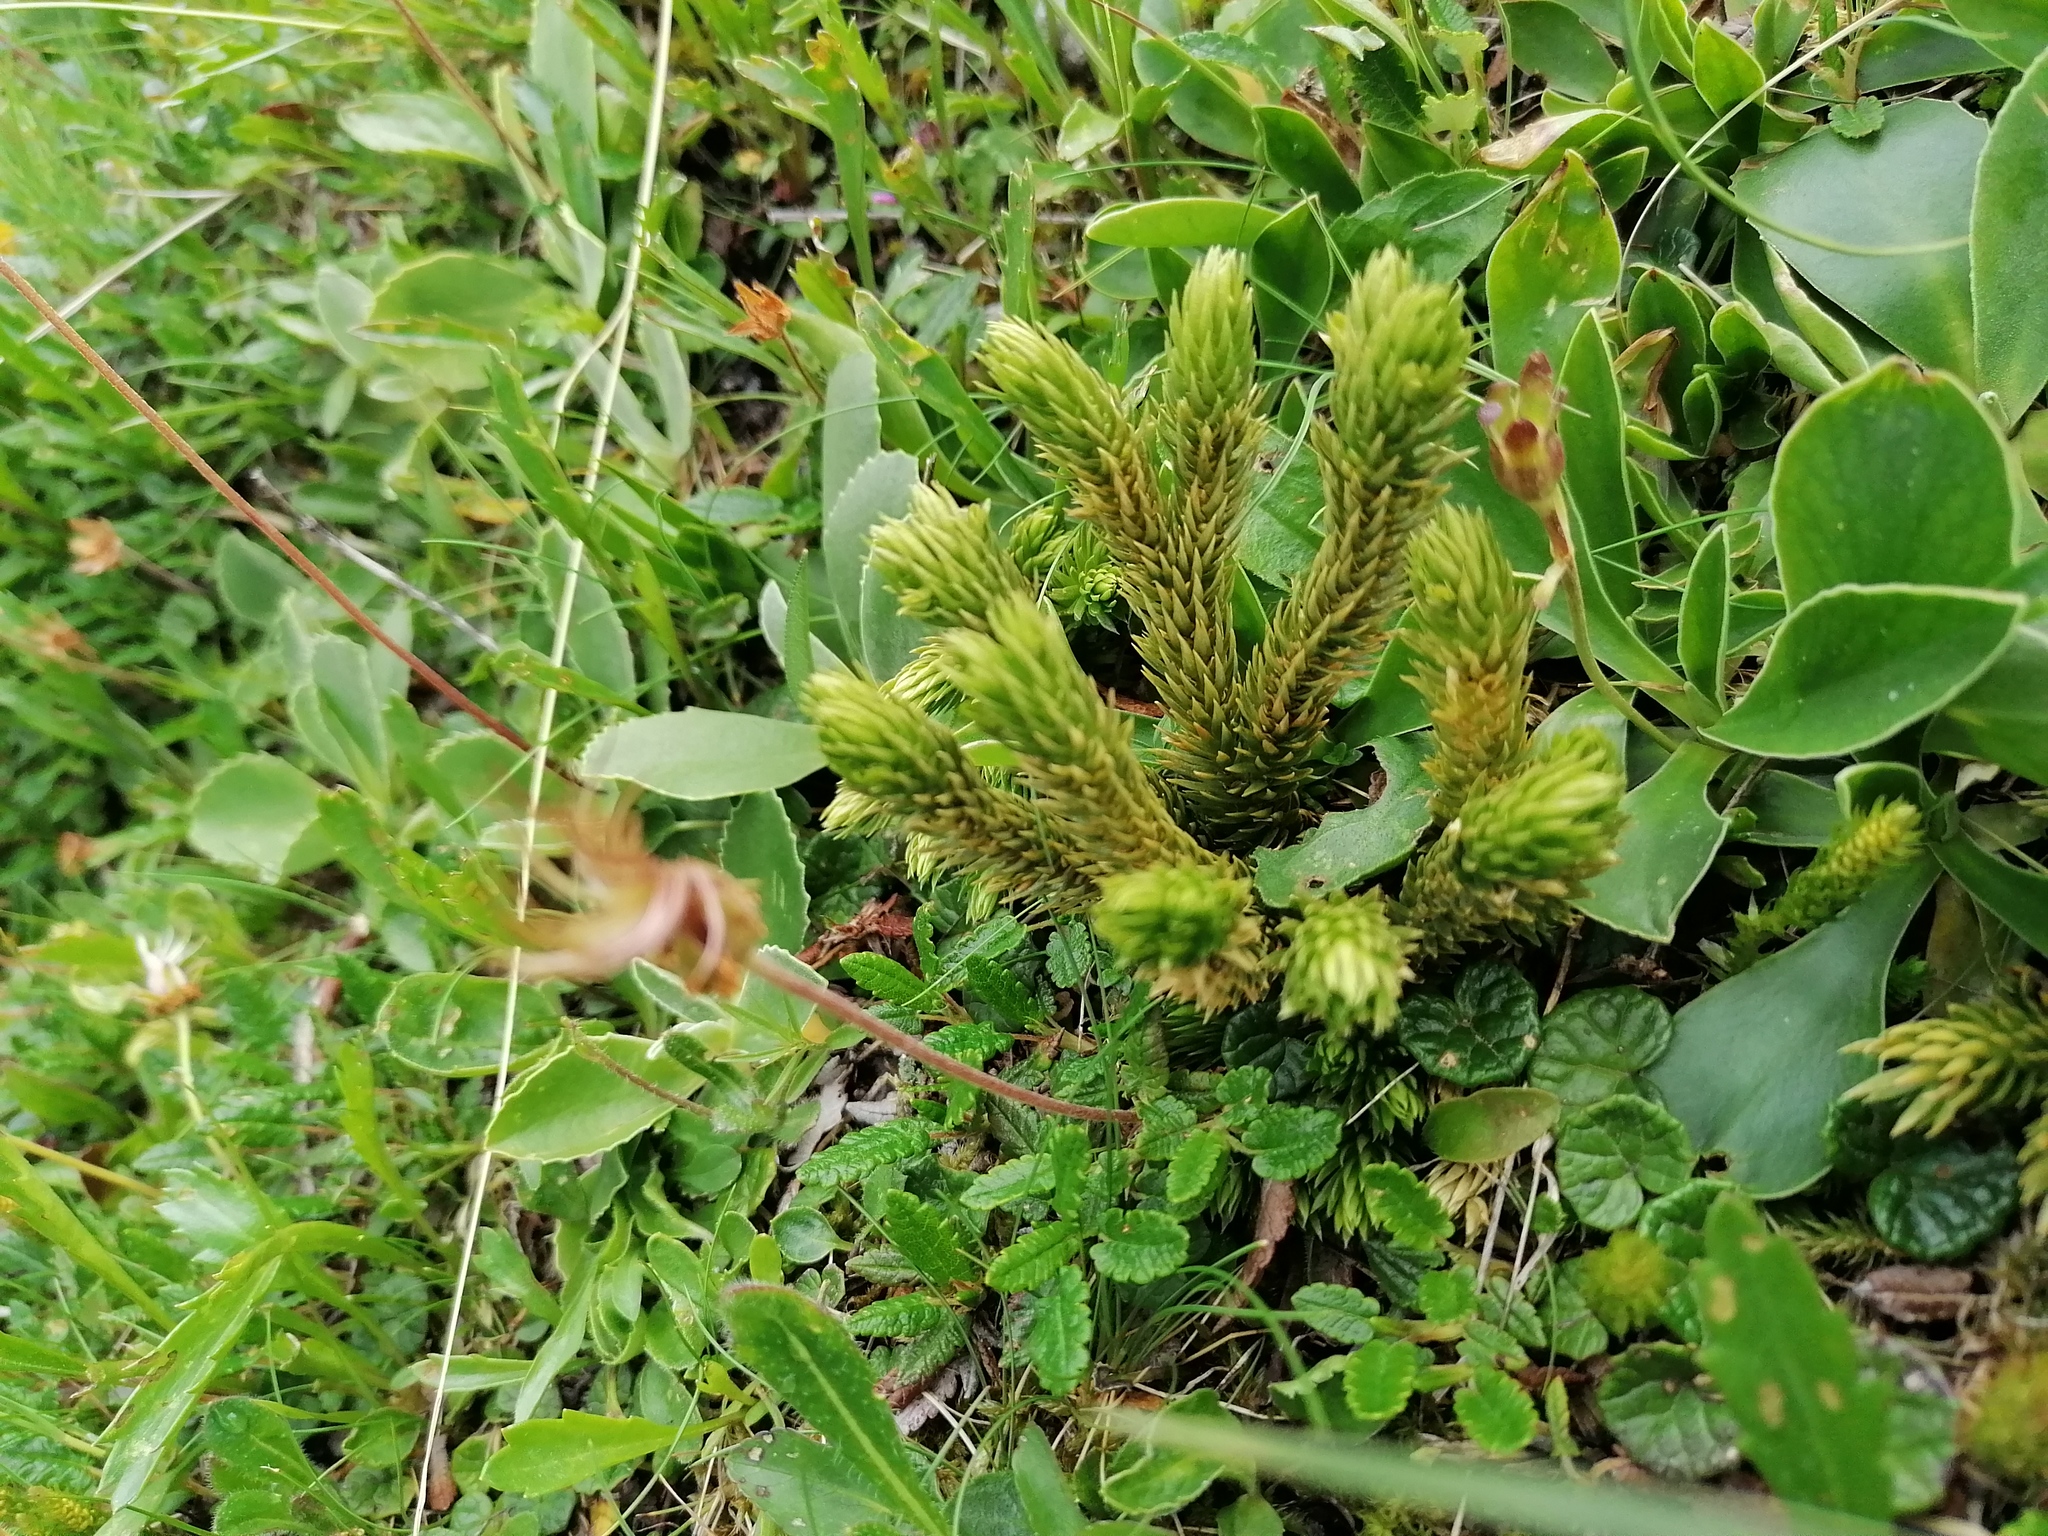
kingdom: Plantae
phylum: Tracheophyta
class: Lycopodiopsida
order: Lycopodiales
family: Lycopodiaceae
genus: Huperzia
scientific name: Huperzia selago
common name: Northern firmoss
